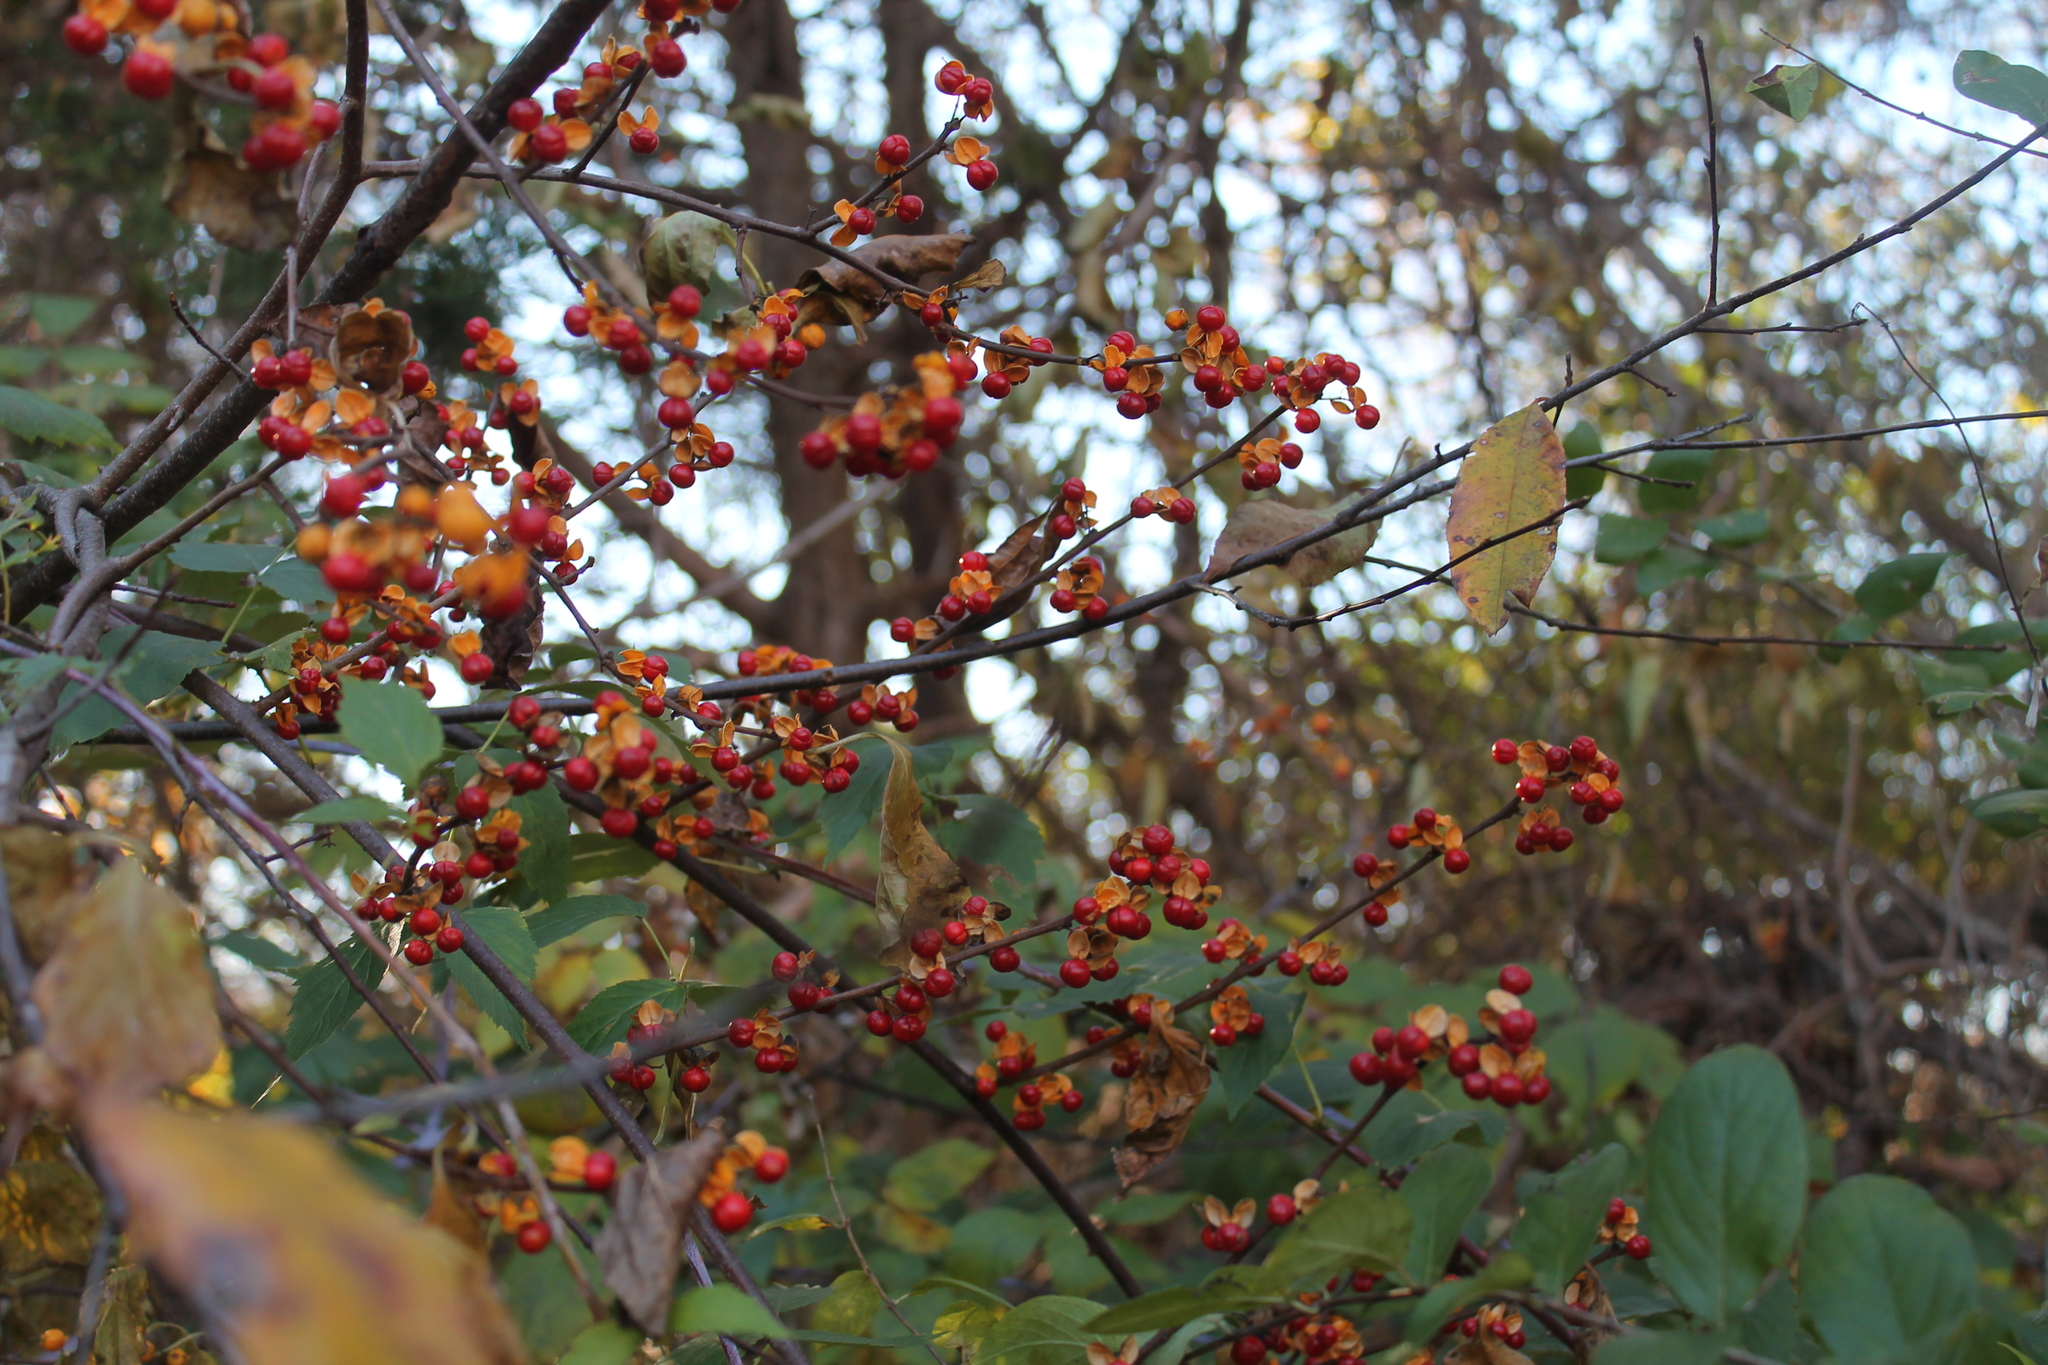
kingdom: Plantae
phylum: Tracheophyta
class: Magnoliopsida
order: Celastrales
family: Celastraceae
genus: Celastrus
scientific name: Celastrus orbiculatus
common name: Oriental bittersweet
